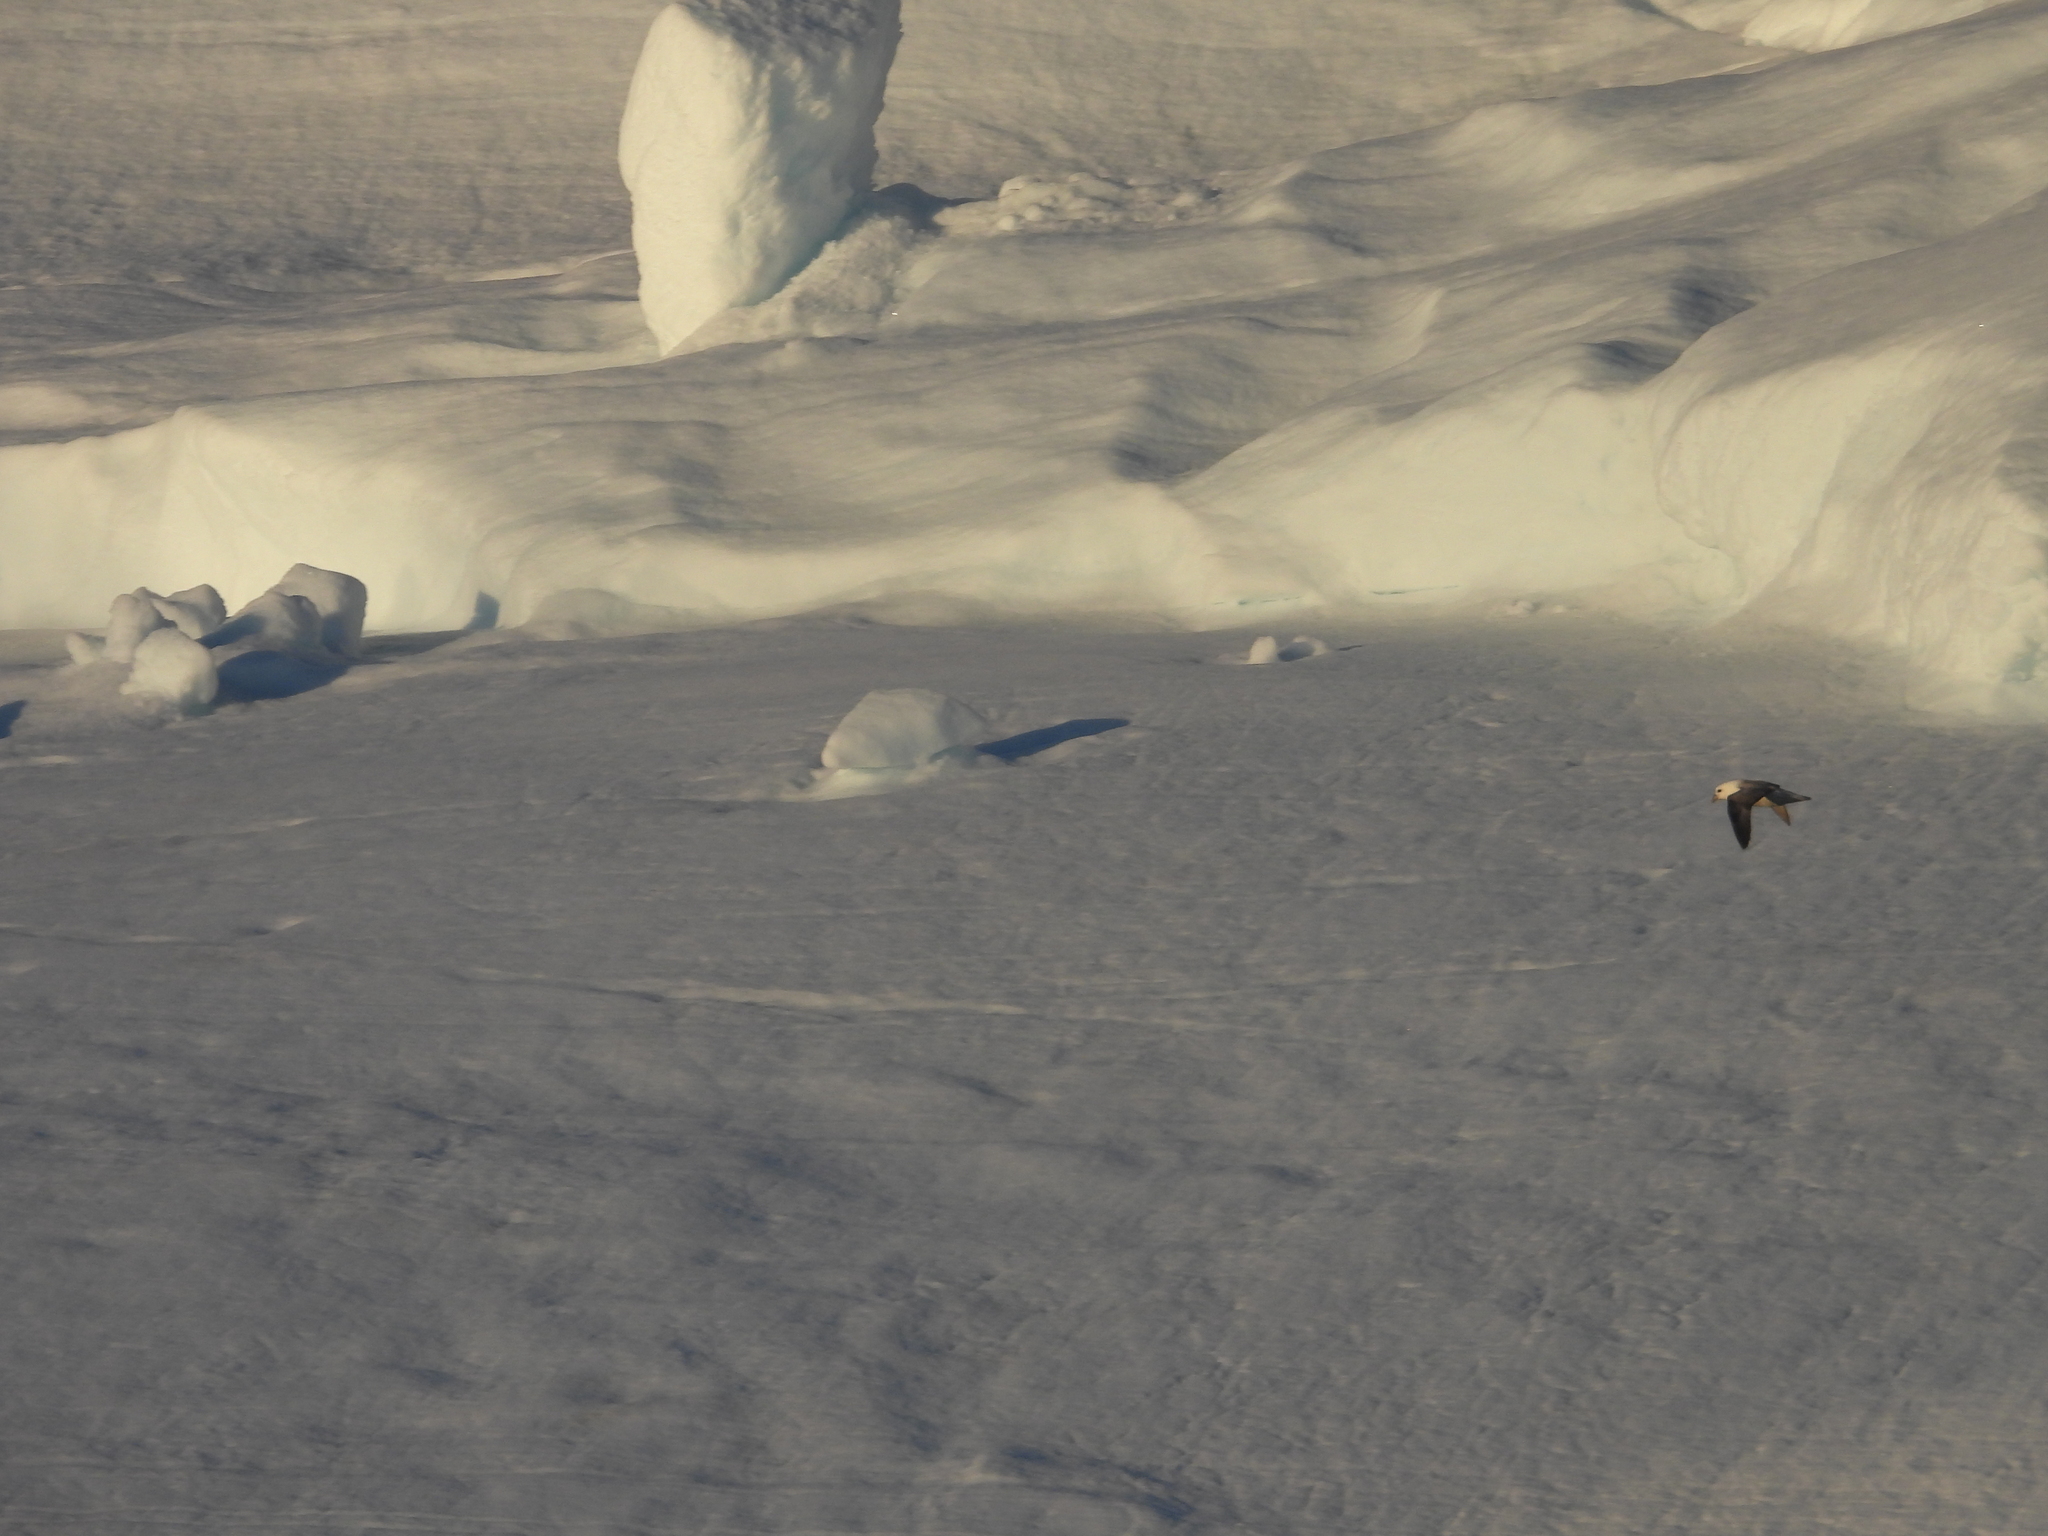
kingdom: Animalia
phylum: Chordata
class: Aves
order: Procellariiformes
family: Procellariidae
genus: Fulmarus
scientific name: Fulmarus glacialis
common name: Northern fulmar
